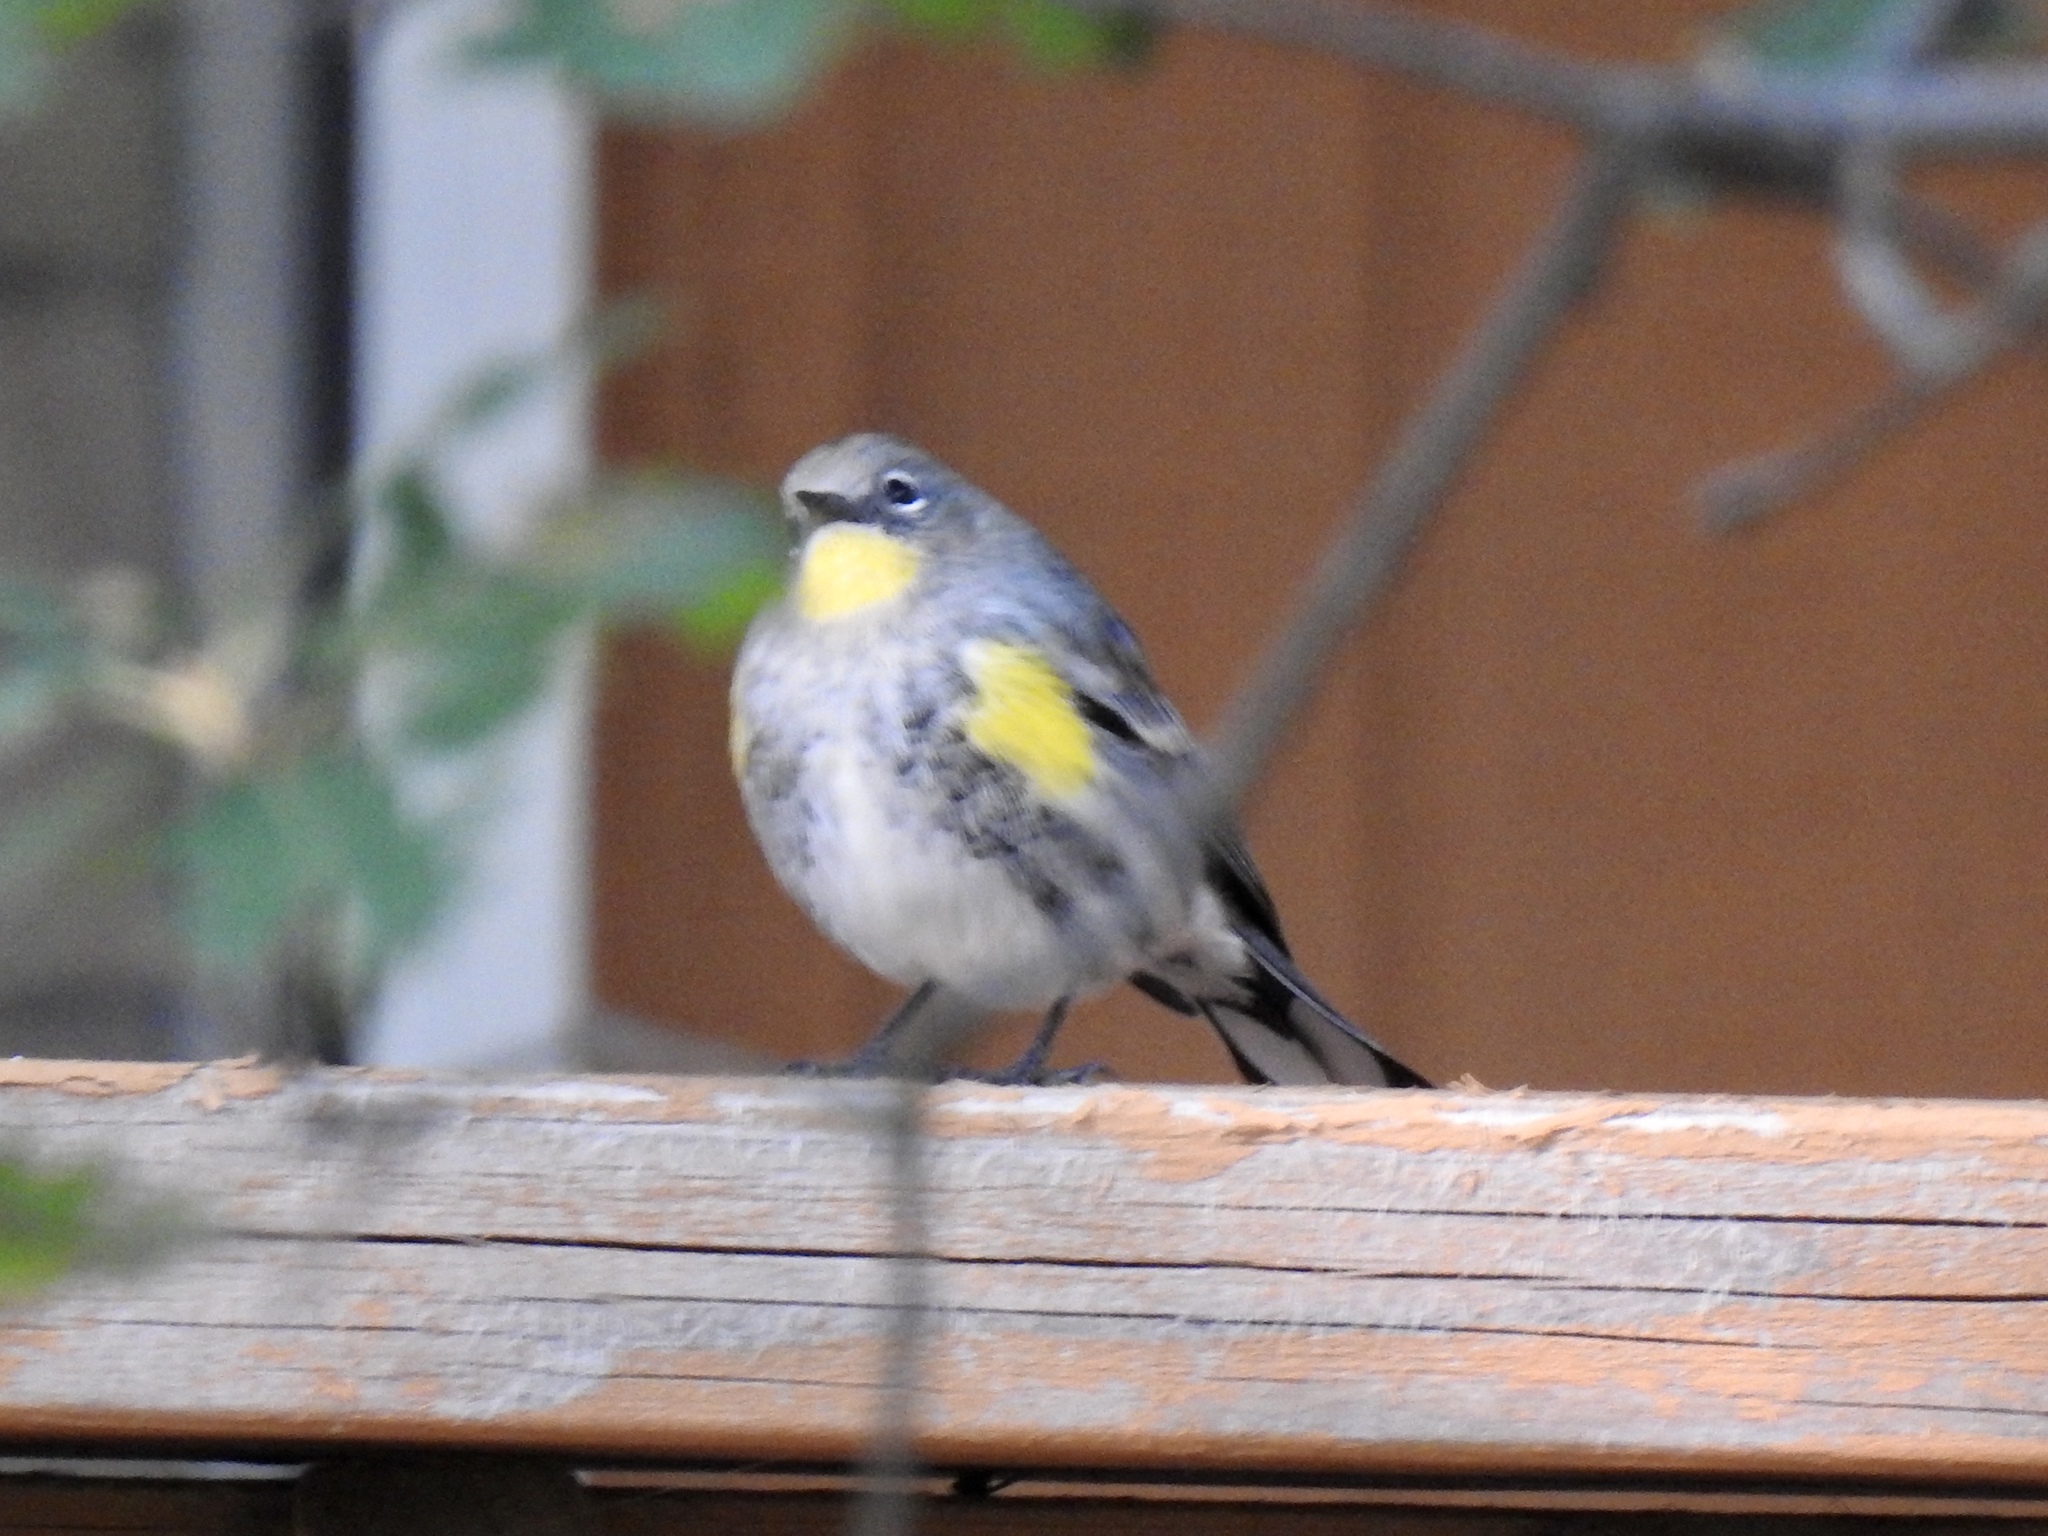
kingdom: Animalia
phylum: Chordata
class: Aves
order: Passeriformes
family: Parulidae
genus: Setophaga
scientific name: Setophaga coronata
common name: Myrtle warbler
